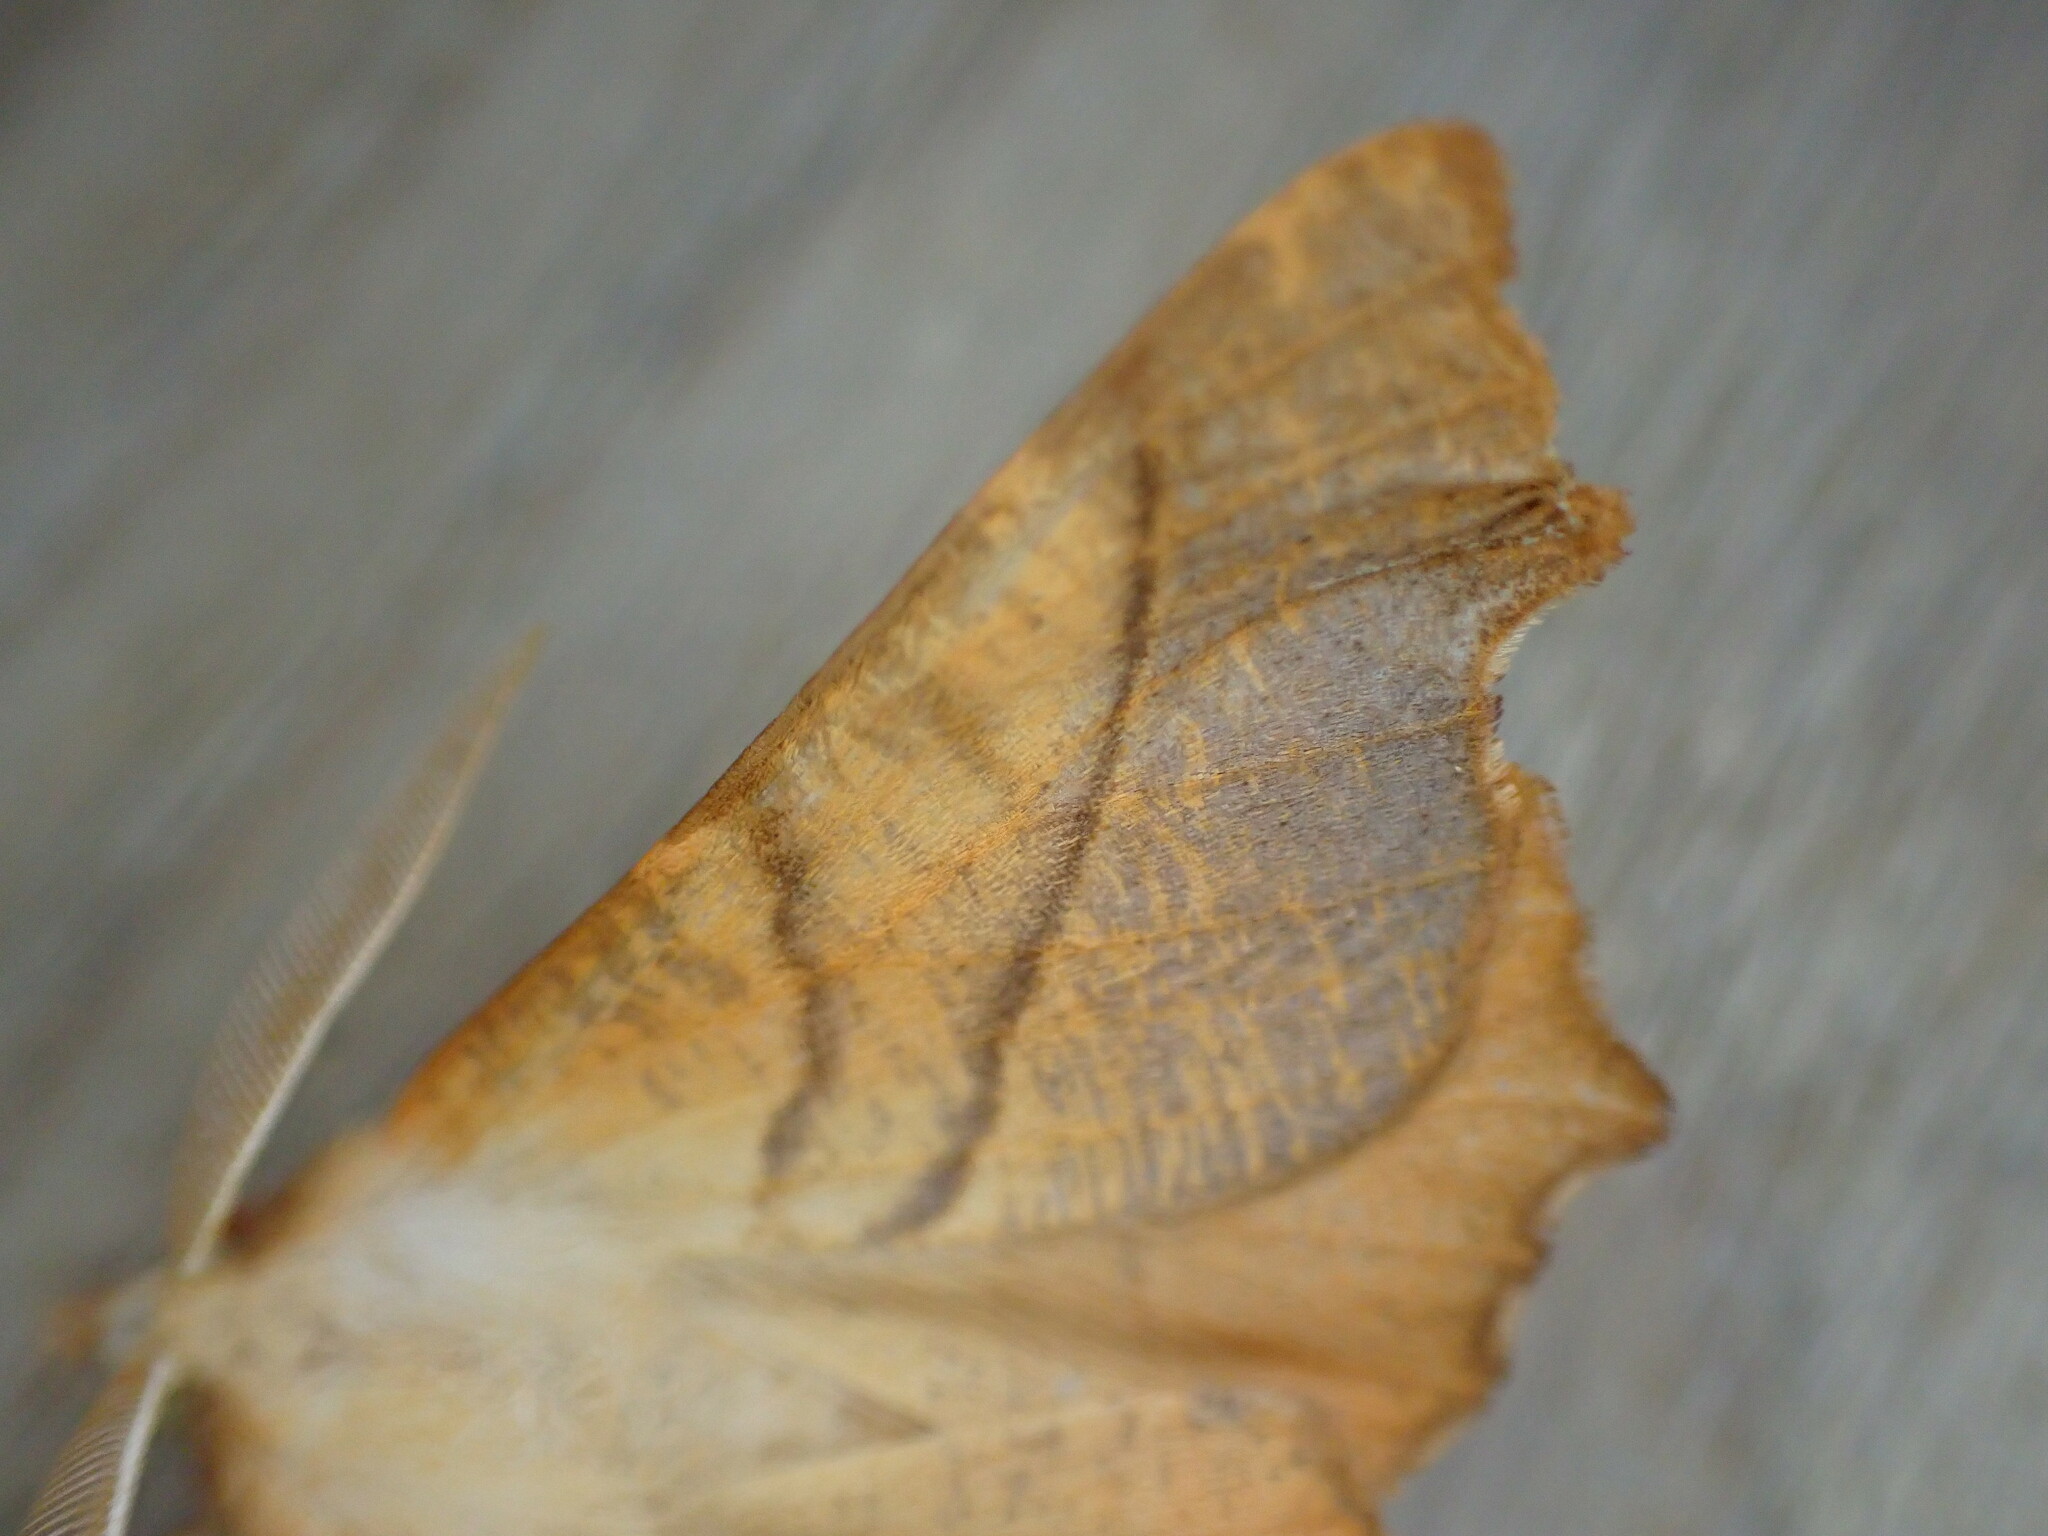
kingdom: Animalia
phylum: Arthropoda
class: Insecta
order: Lepidoptera
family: Geometridae
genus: Ennomos
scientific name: Ennomos fuscantaria
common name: Dusky thorn
